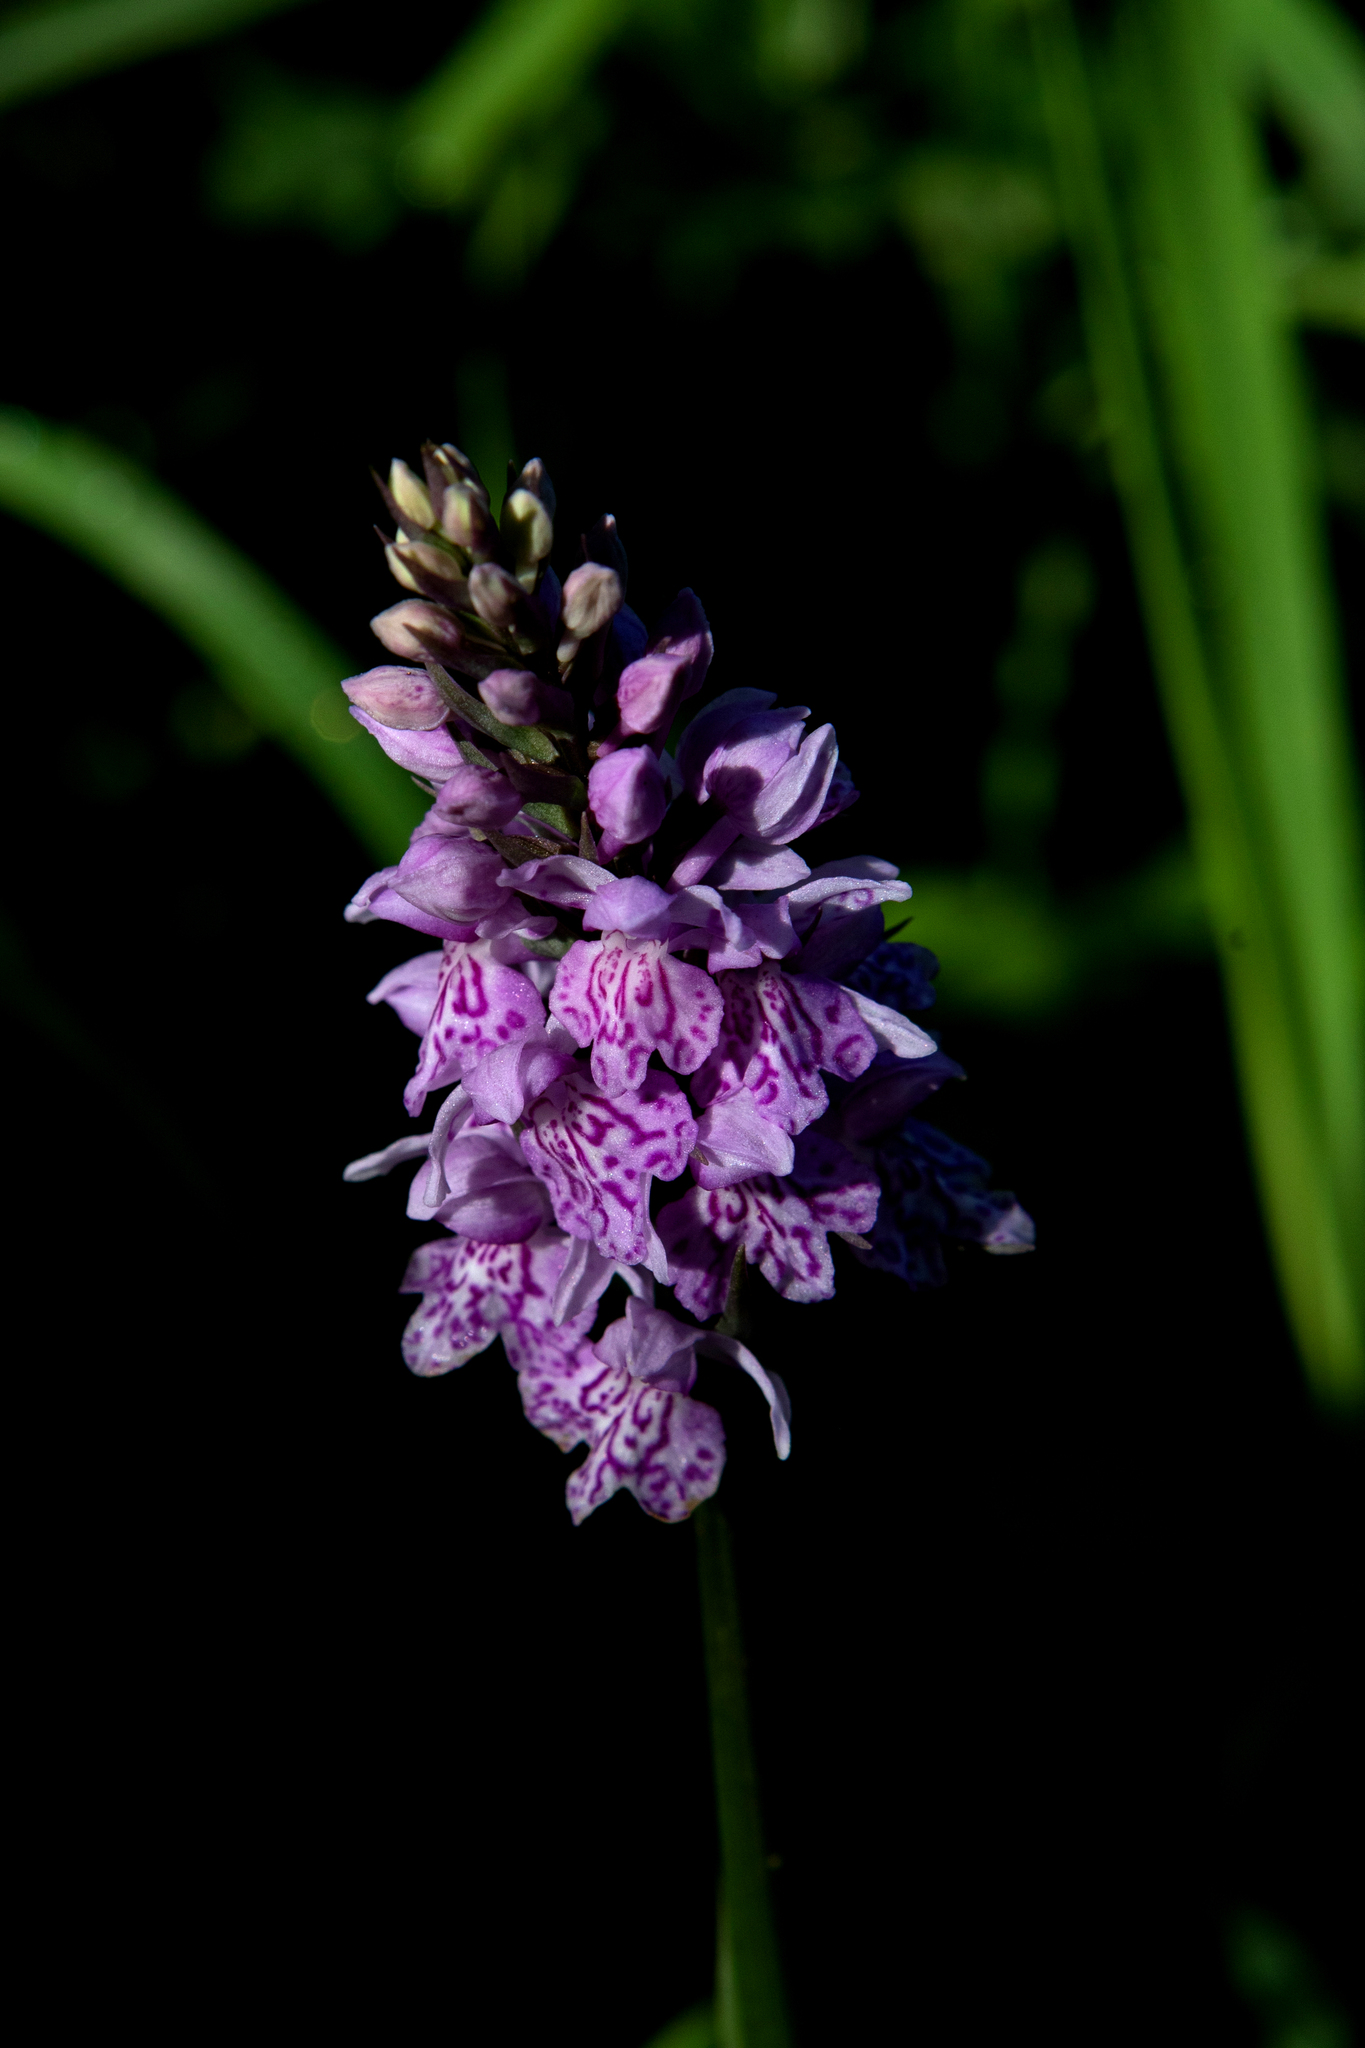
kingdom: Plantae
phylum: Tracheophyta
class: Liliopsida
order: Asparagales
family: Orchidaceae
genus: Dactylorhiza
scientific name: Dactylorhiza sibirica
